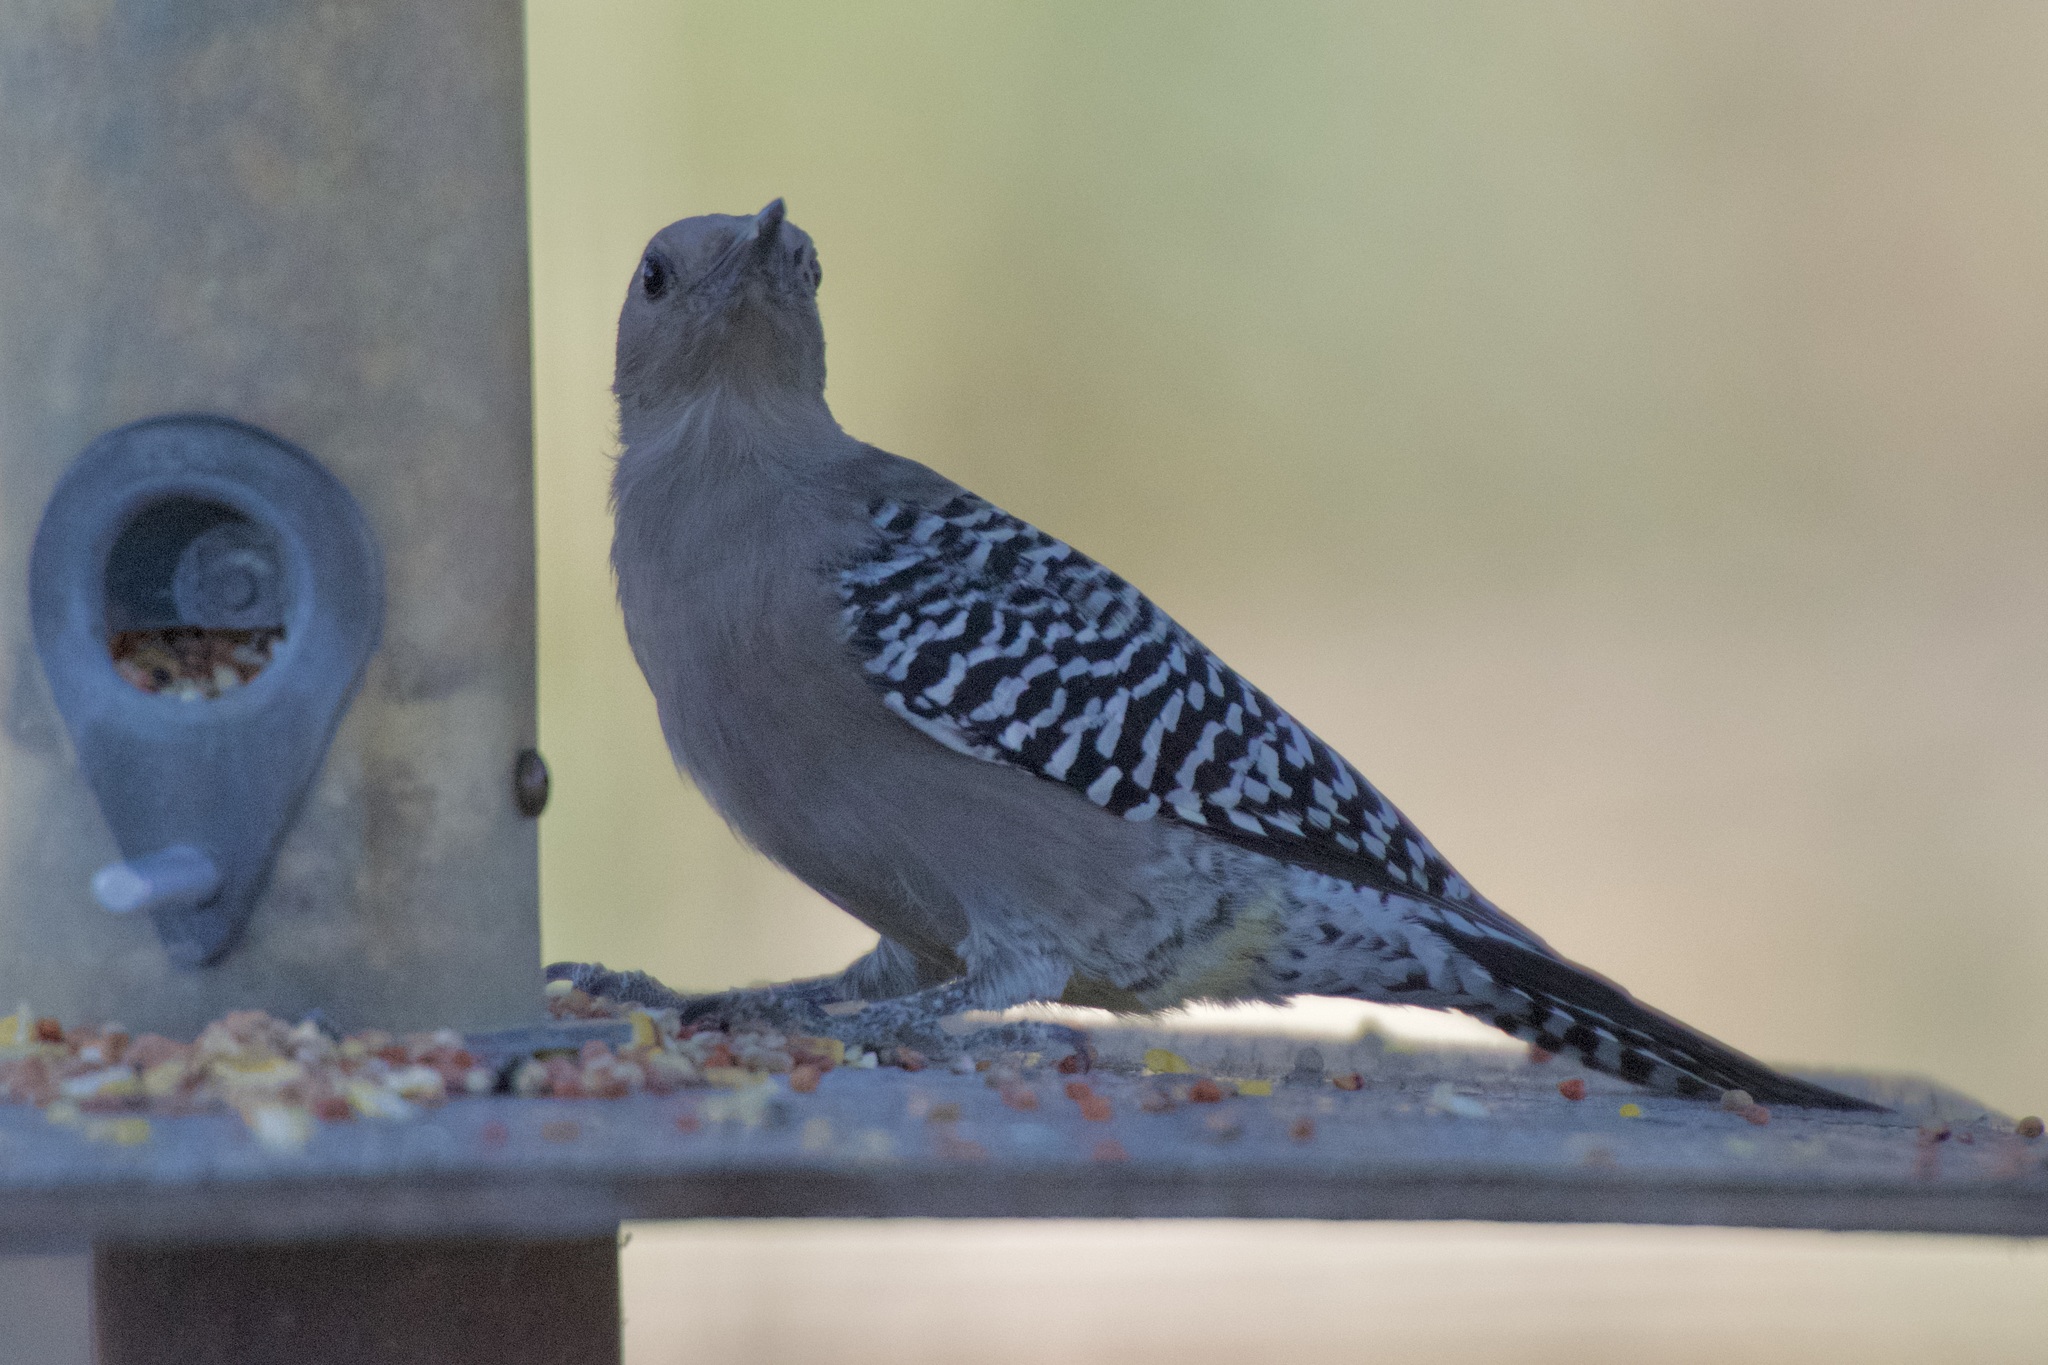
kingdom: Animalia
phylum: Chordata
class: Aves
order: Piciformes
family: Picidae
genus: Melanerpes
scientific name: Melanerpes uropygialis
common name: Gila woodpecker
